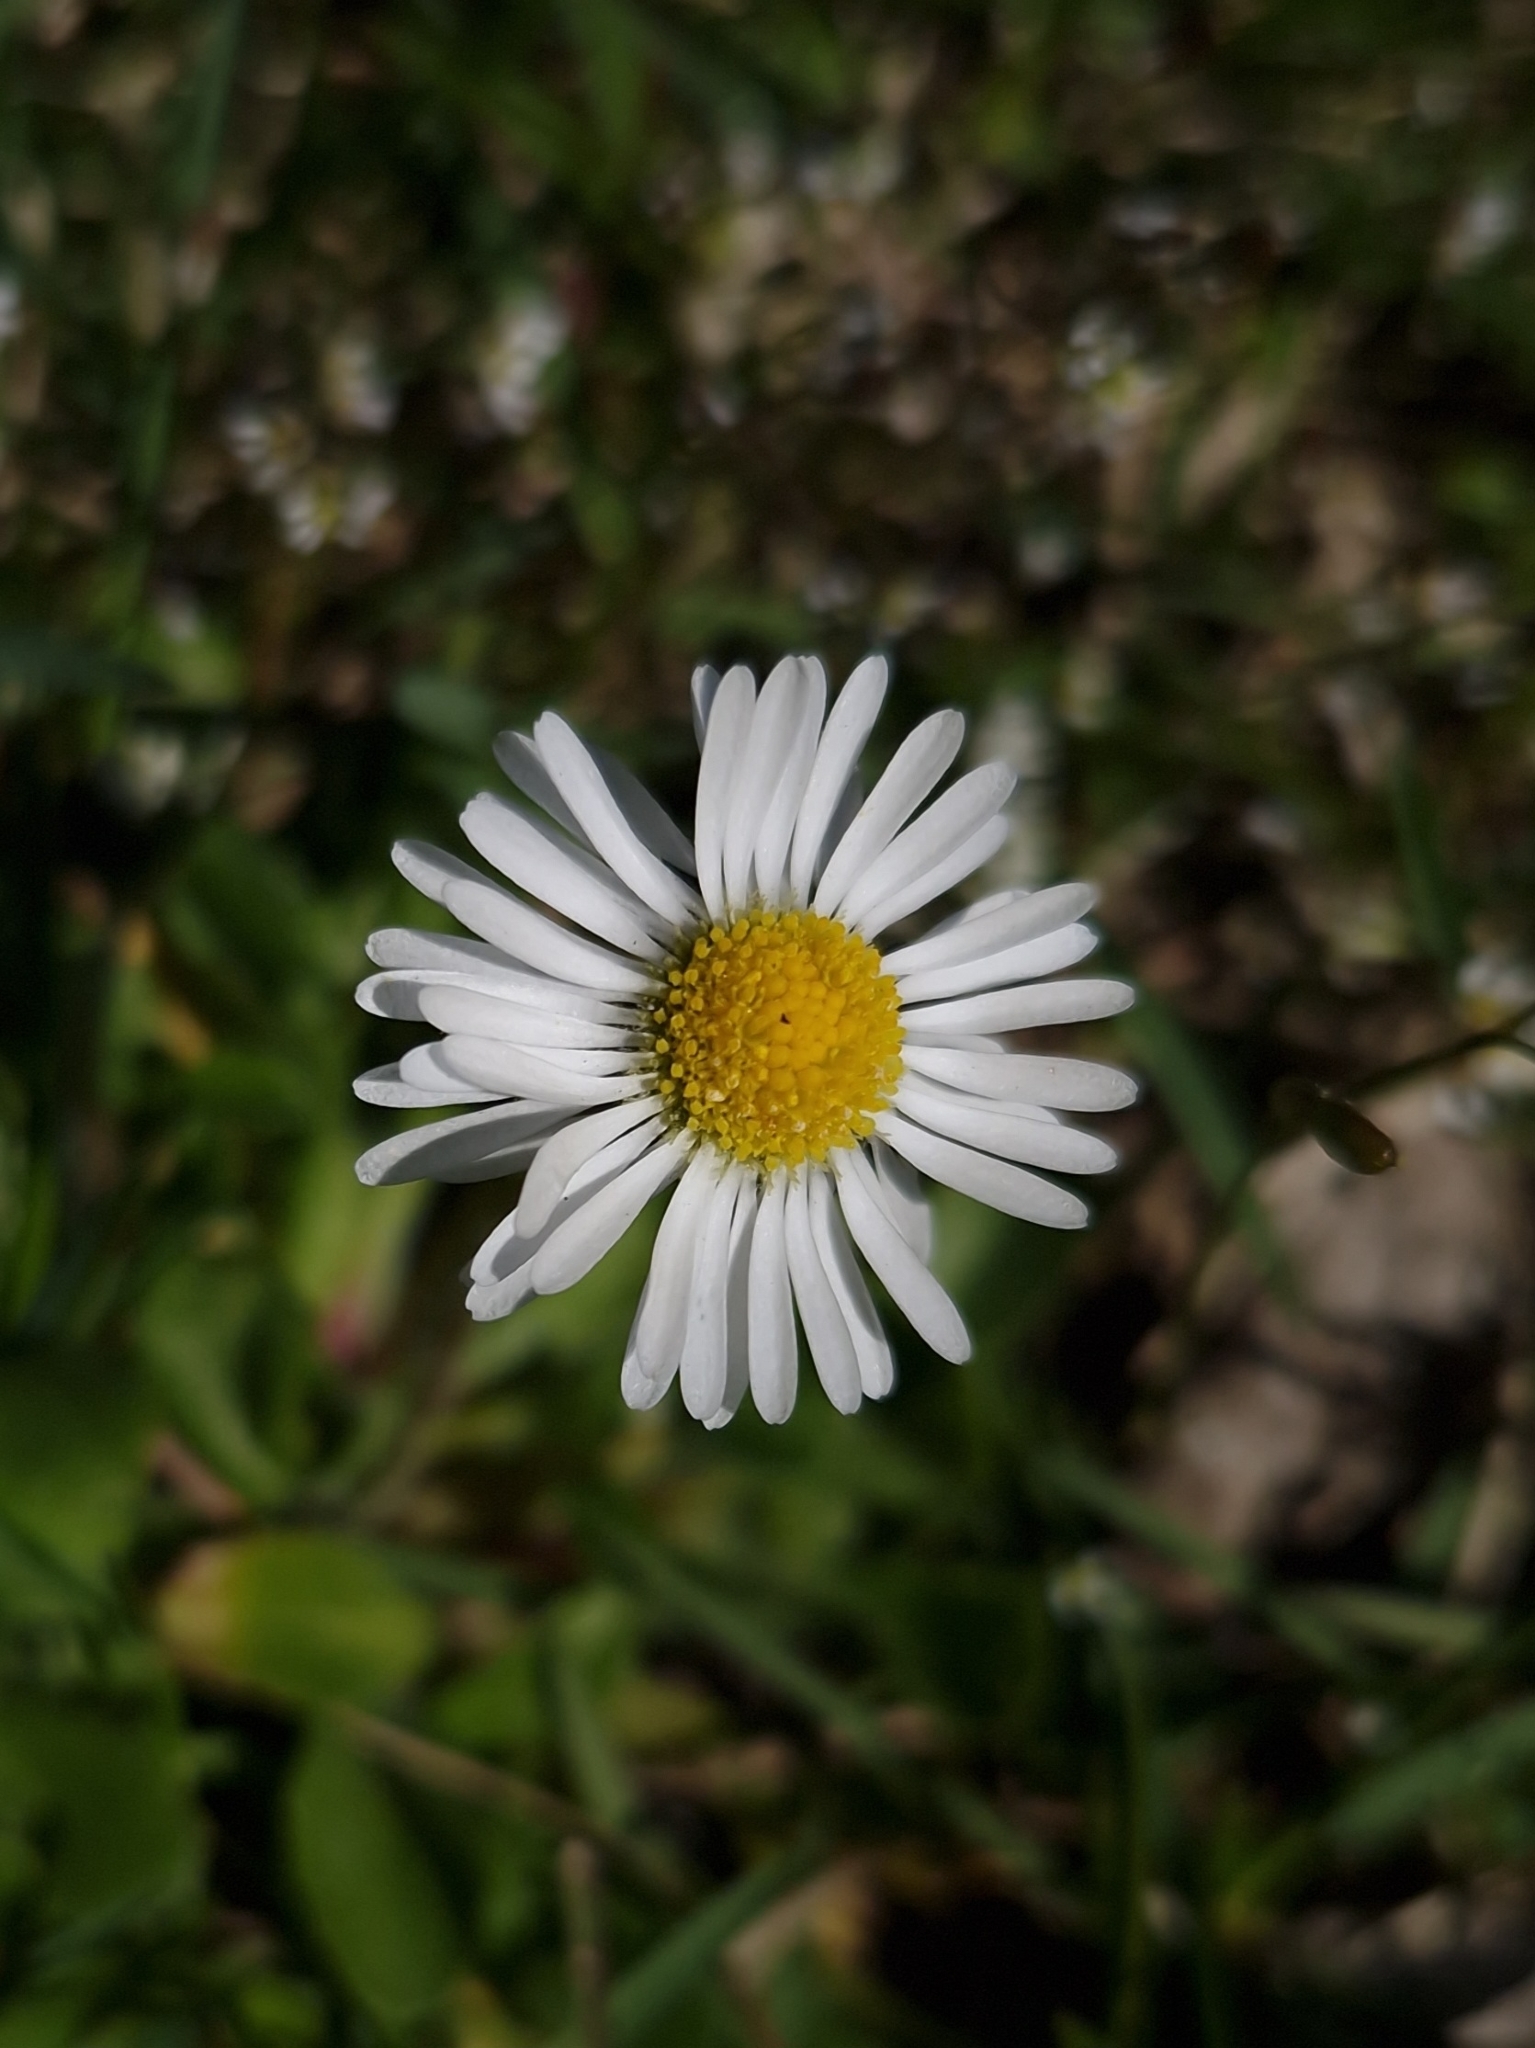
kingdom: Plantae
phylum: Tracheophyta
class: Magnoliopsida
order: Asterales
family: Asteraceae
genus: Bellis
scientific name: Bellis perennis
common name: Lawndaisy
